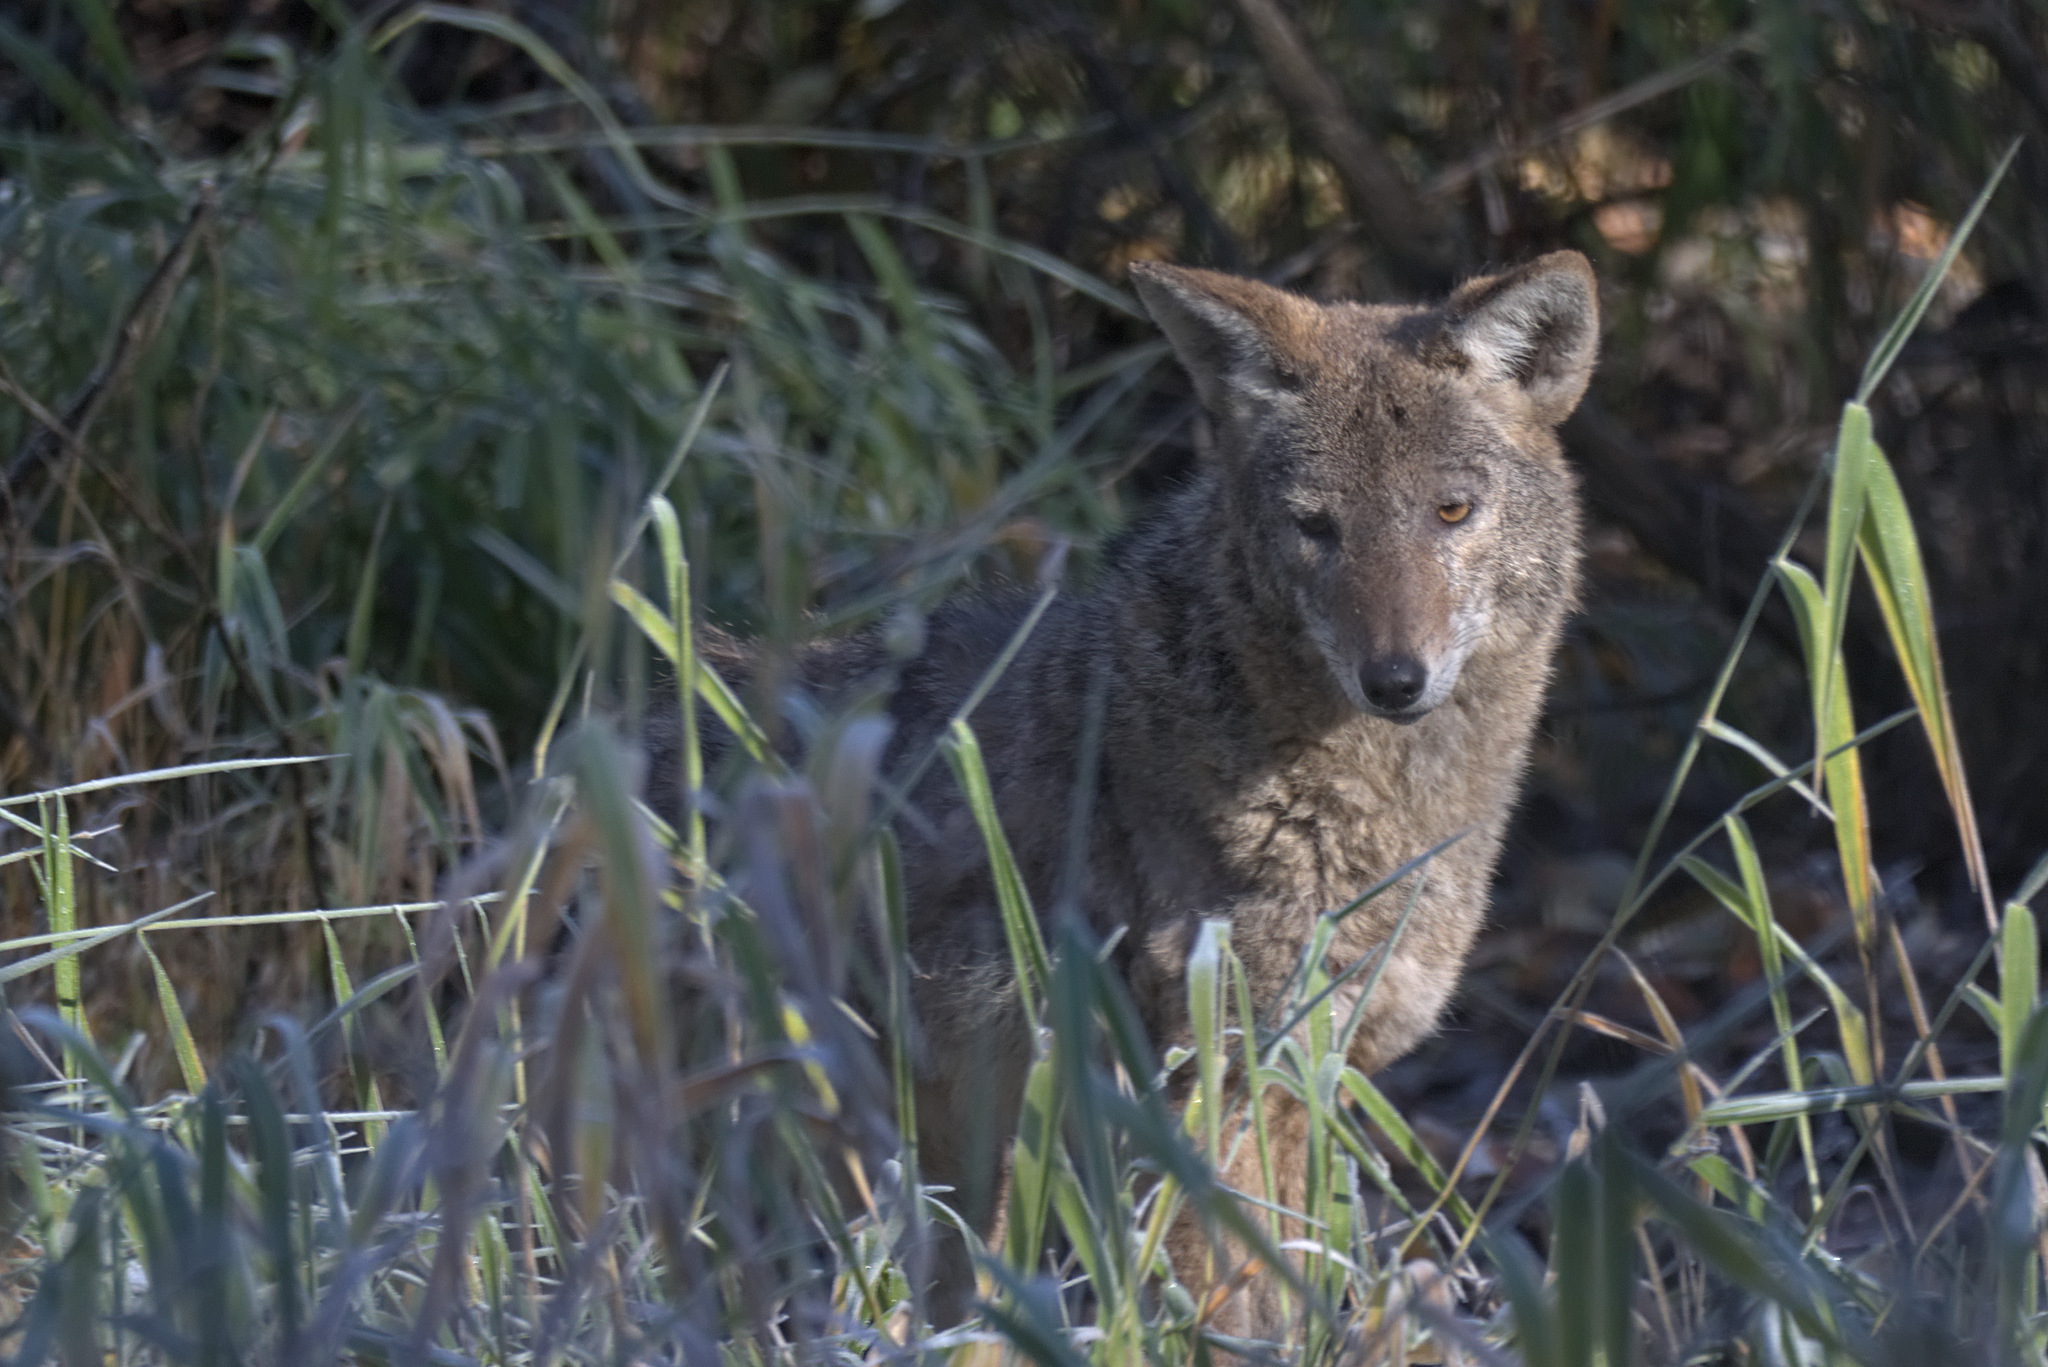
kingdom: Animalia
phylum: Chordata
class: Mammalia
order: Carnivora
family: Canidae
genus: Canis
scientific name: Canis latrans
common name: Coyote
